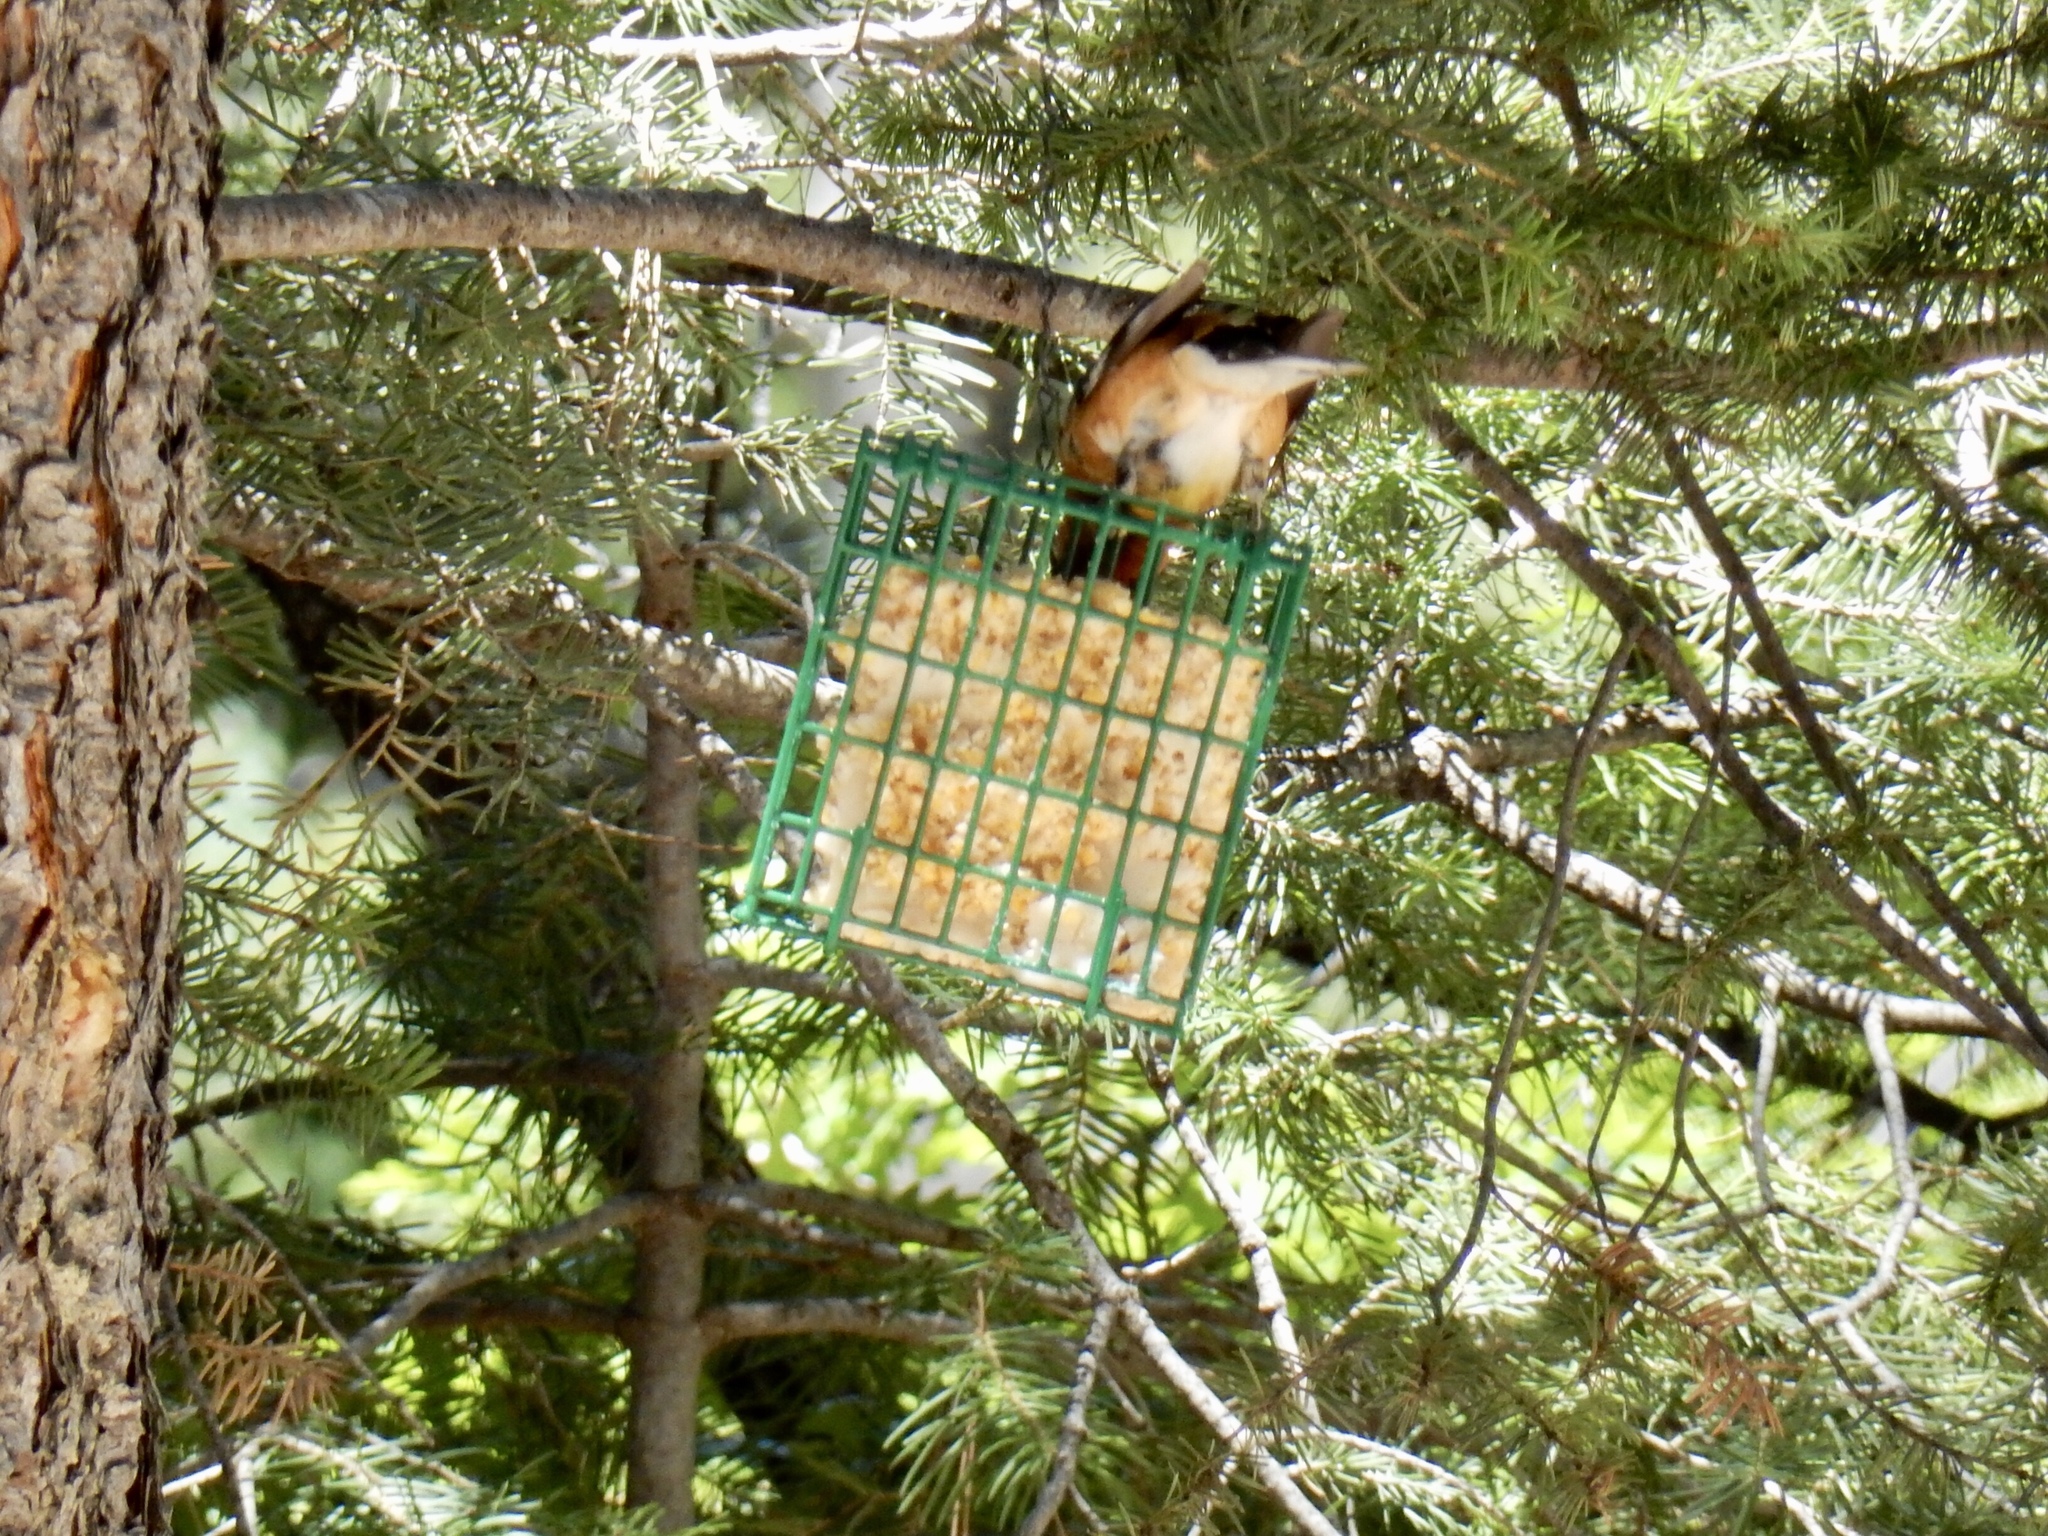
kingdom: Animalia
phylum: Chordata
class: Aves
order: Passeriformes
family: Cardinalidae
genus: Pheucticus
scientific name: Pheucticus melanocephalus
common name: Black-headed grosbeak
